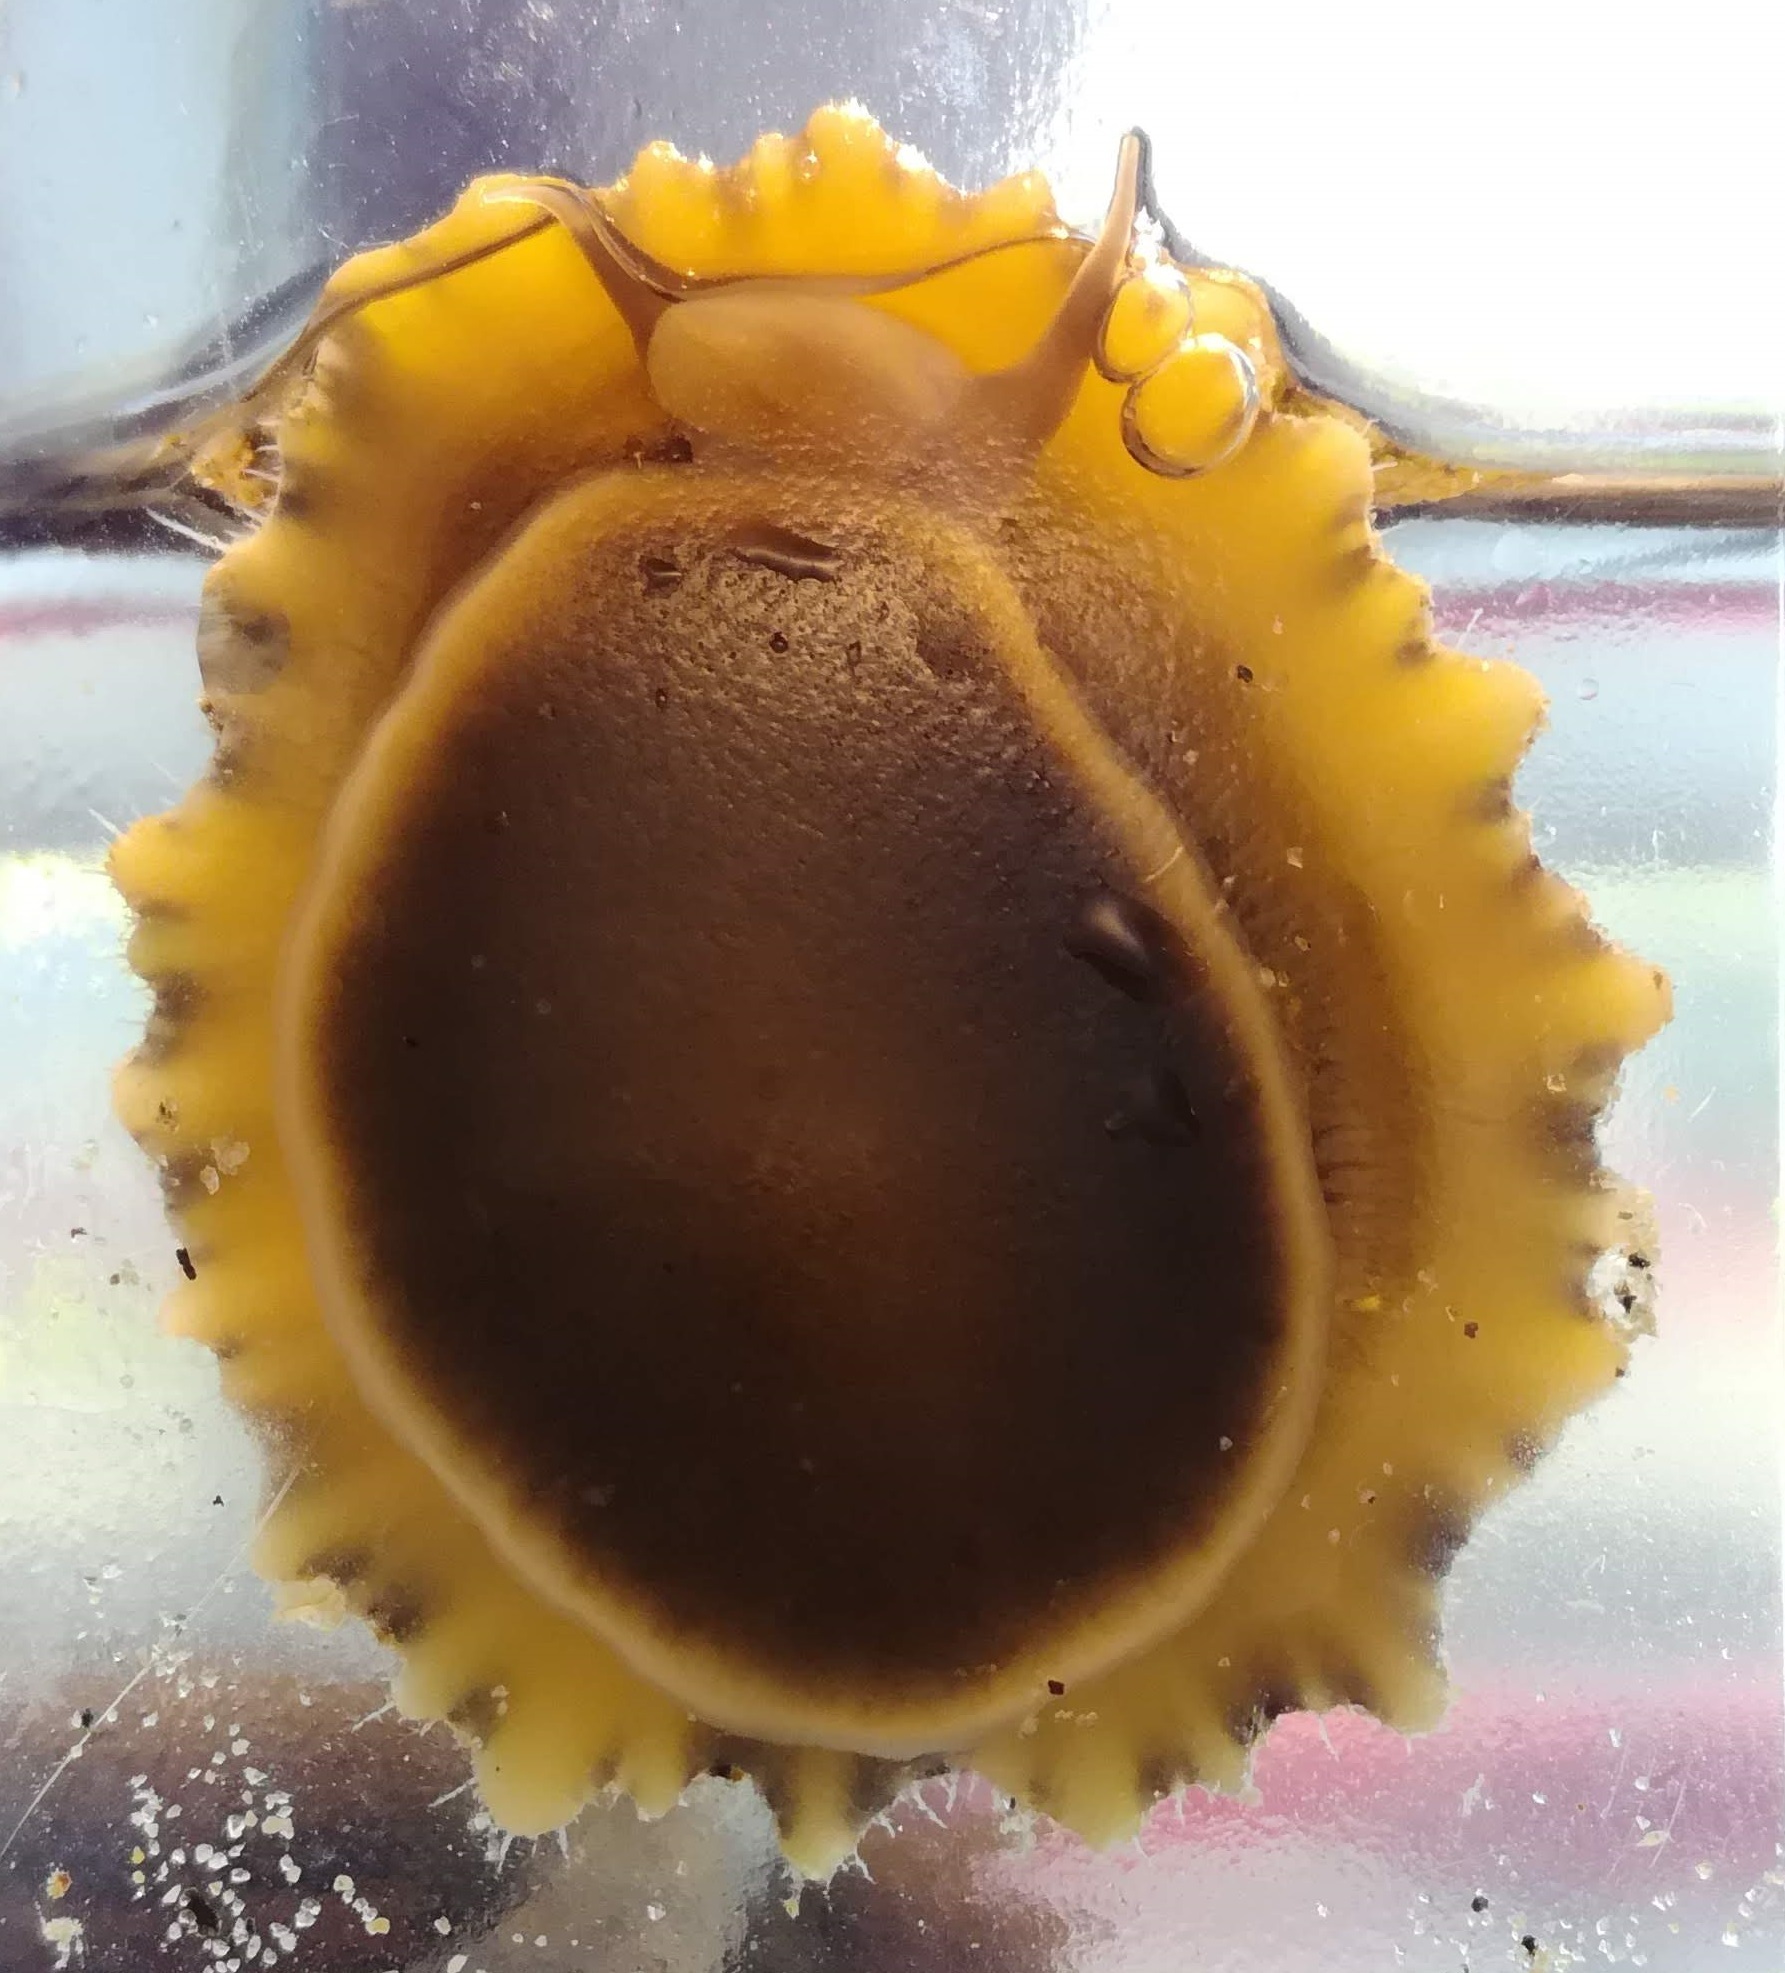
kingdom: Animalia
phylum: Mollusca
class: Gastropoda
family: Patellidae
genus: Patella
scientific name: Patella vulgata
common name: Common limpet
